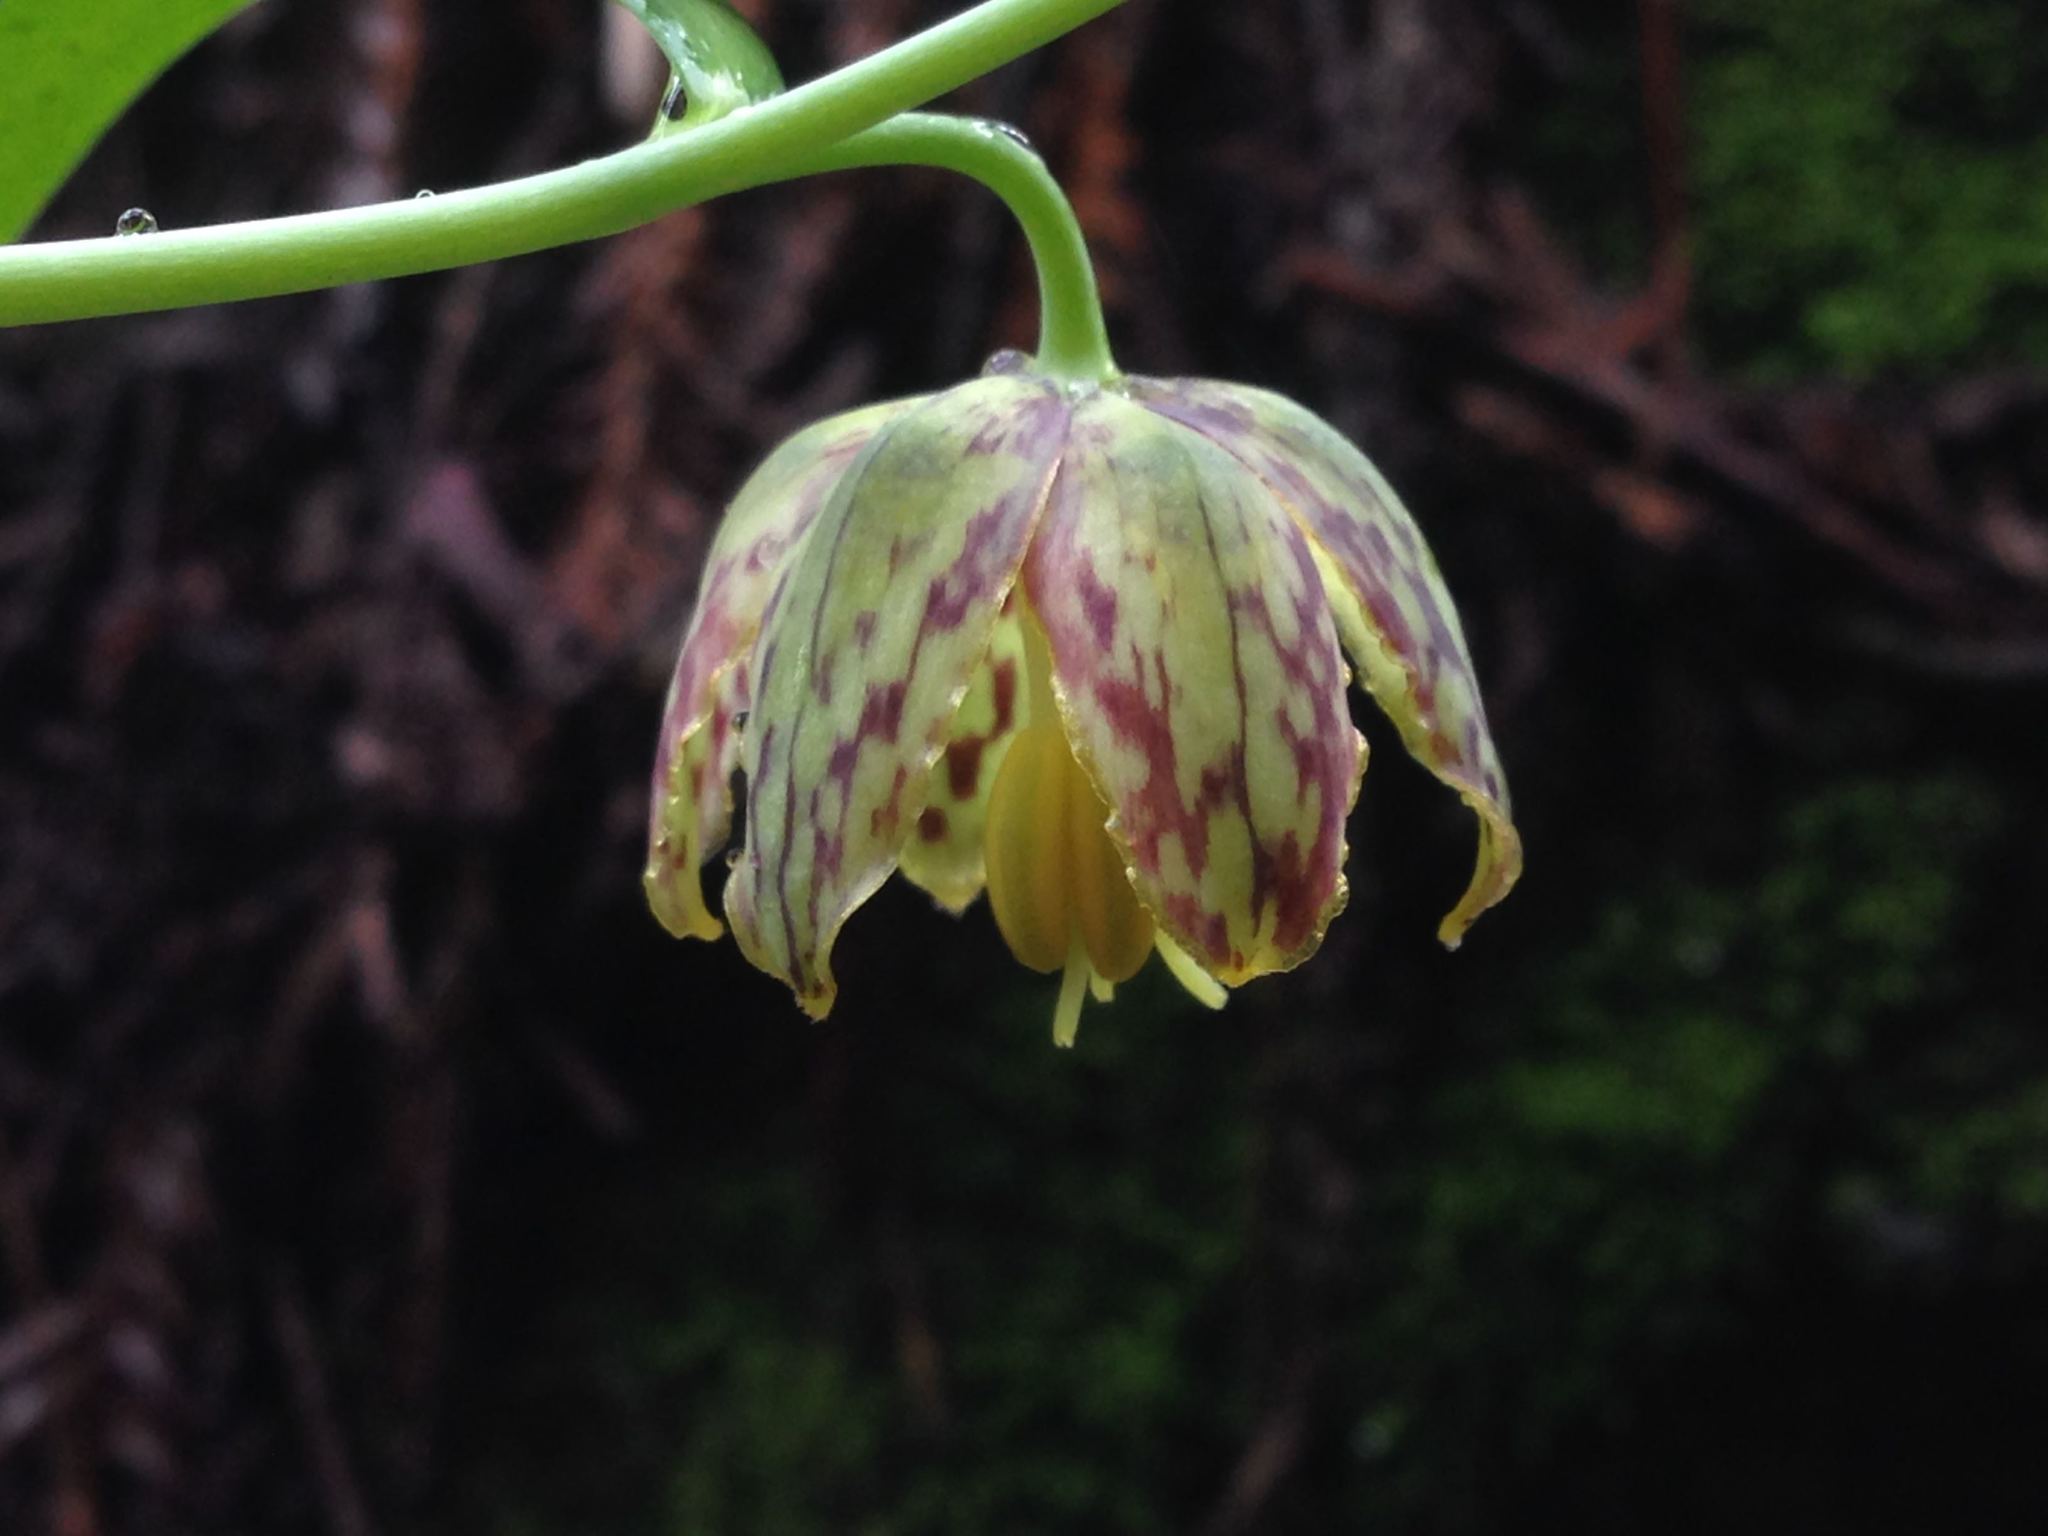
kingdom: Plantae
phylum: Tracheophyta
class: Liliopsida
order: Liliales
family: Liliaceae
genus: Fritillaria
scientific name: Fritillaria affinis
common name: Ojai fritillary
